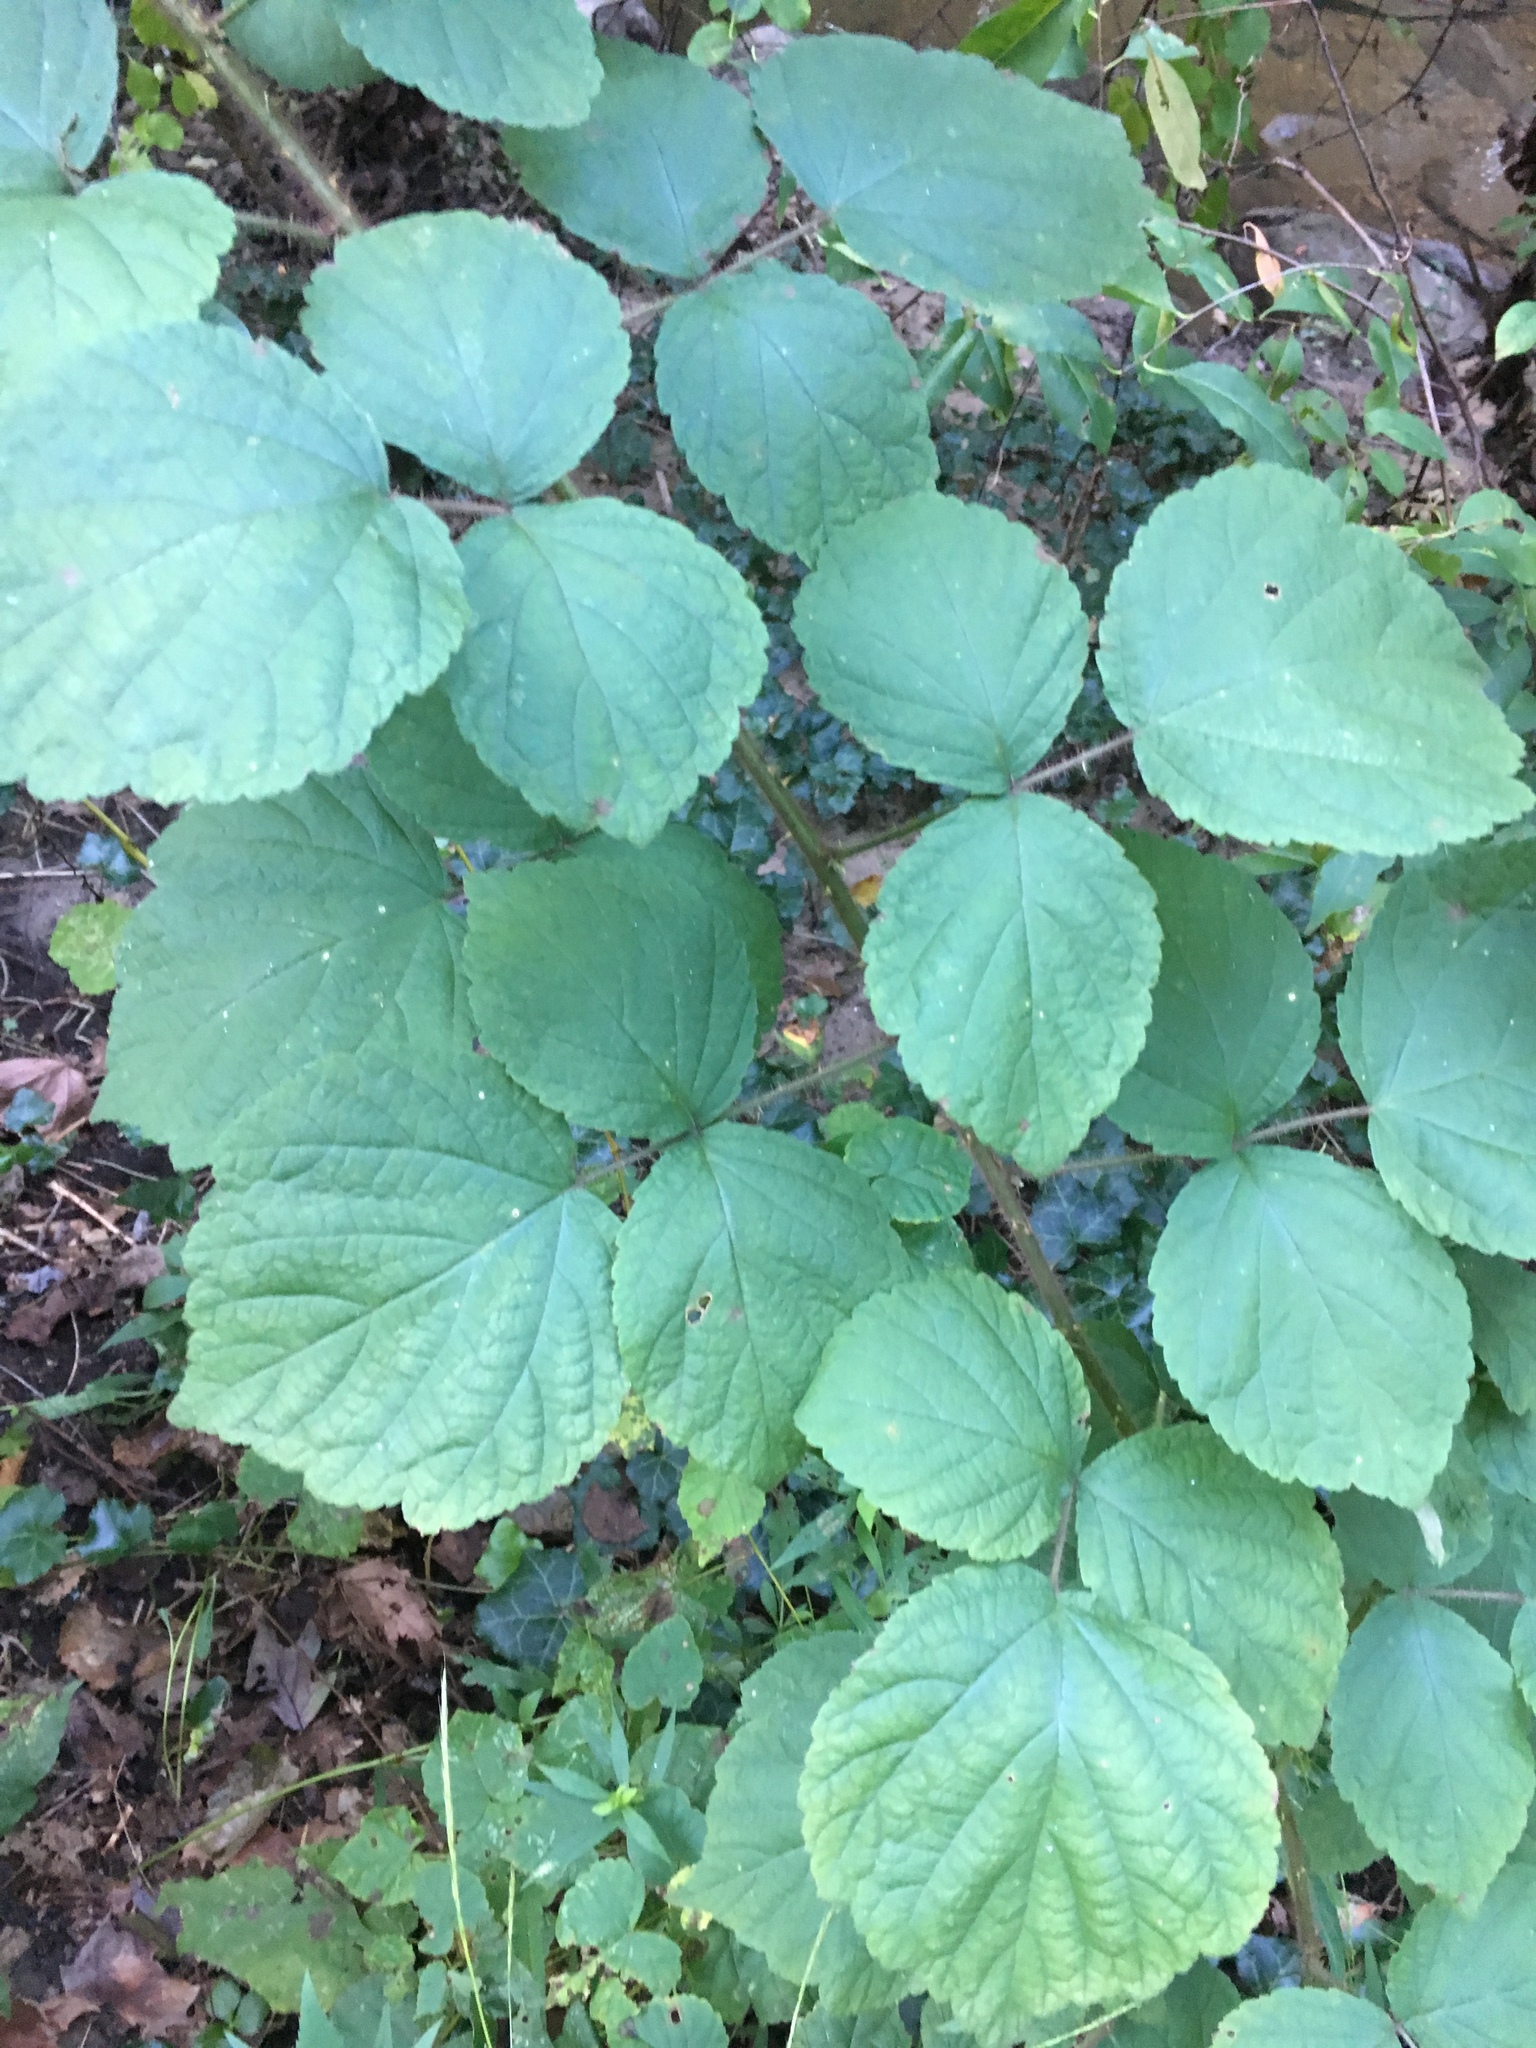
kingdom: Plantae
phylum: Tracheophyta
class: Magnoliopsida
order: Rosales
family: Rosaceae
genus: Rubus
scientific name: Rubus phoenicolasius
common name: Japanese wineberry
